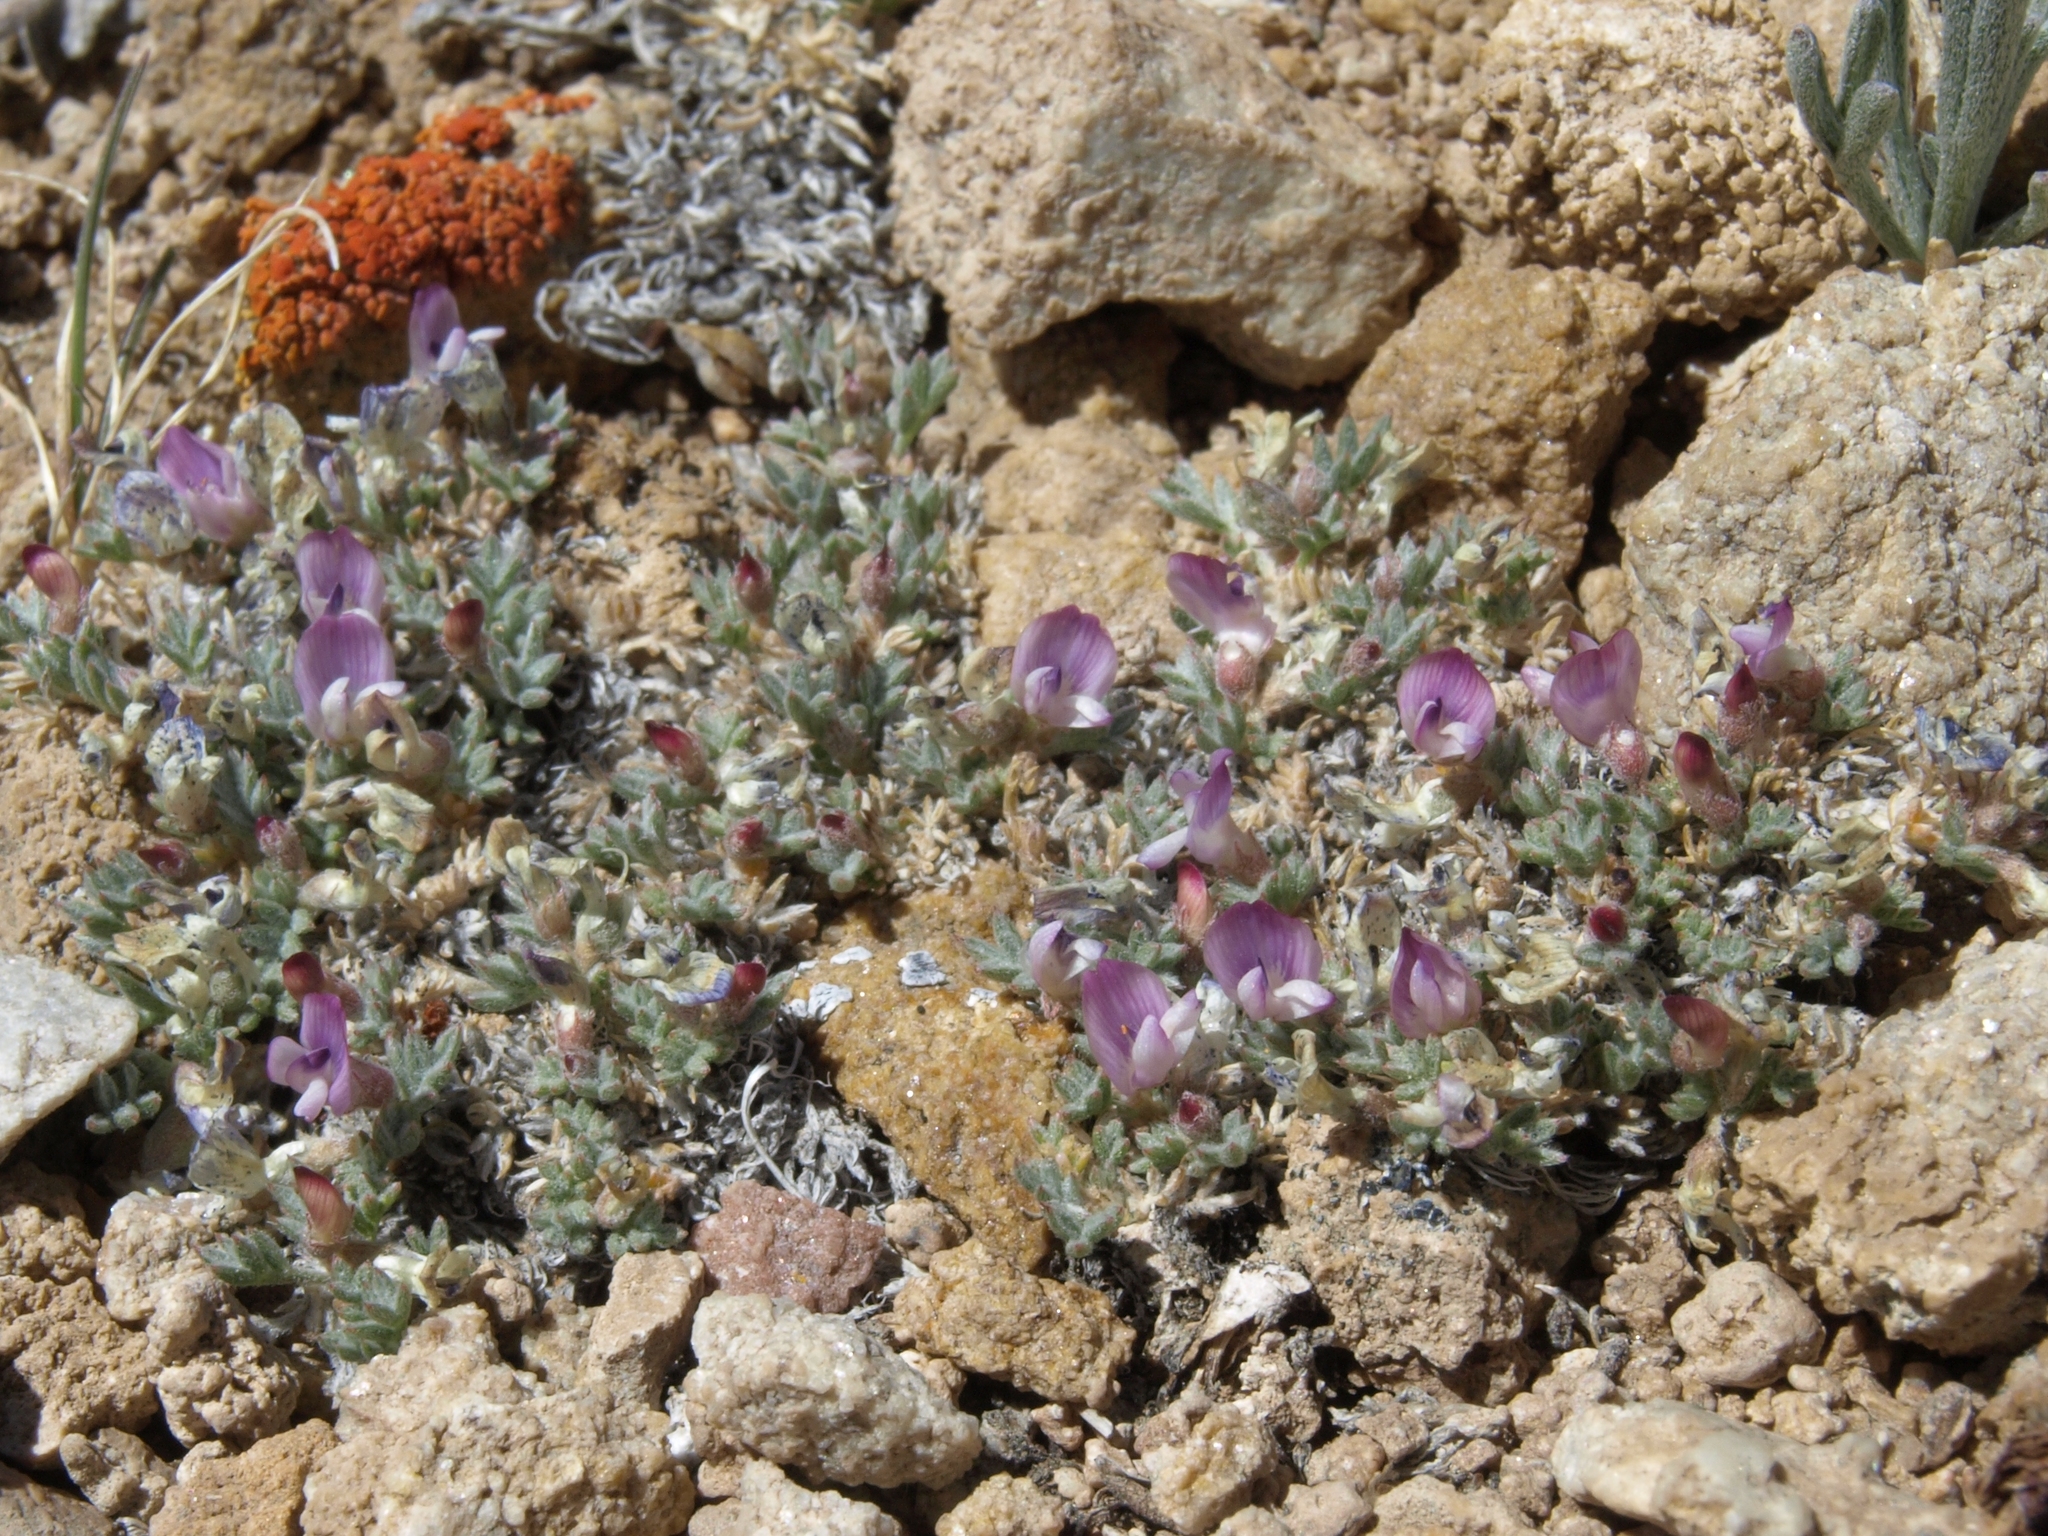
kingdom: Plantae
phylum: Tracheophyta
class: Magnoliopsida
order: Fabales
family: Fabaceae
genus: Astragalus
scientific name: Astragalus kentrophyta
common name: Prickly milk-vetch
